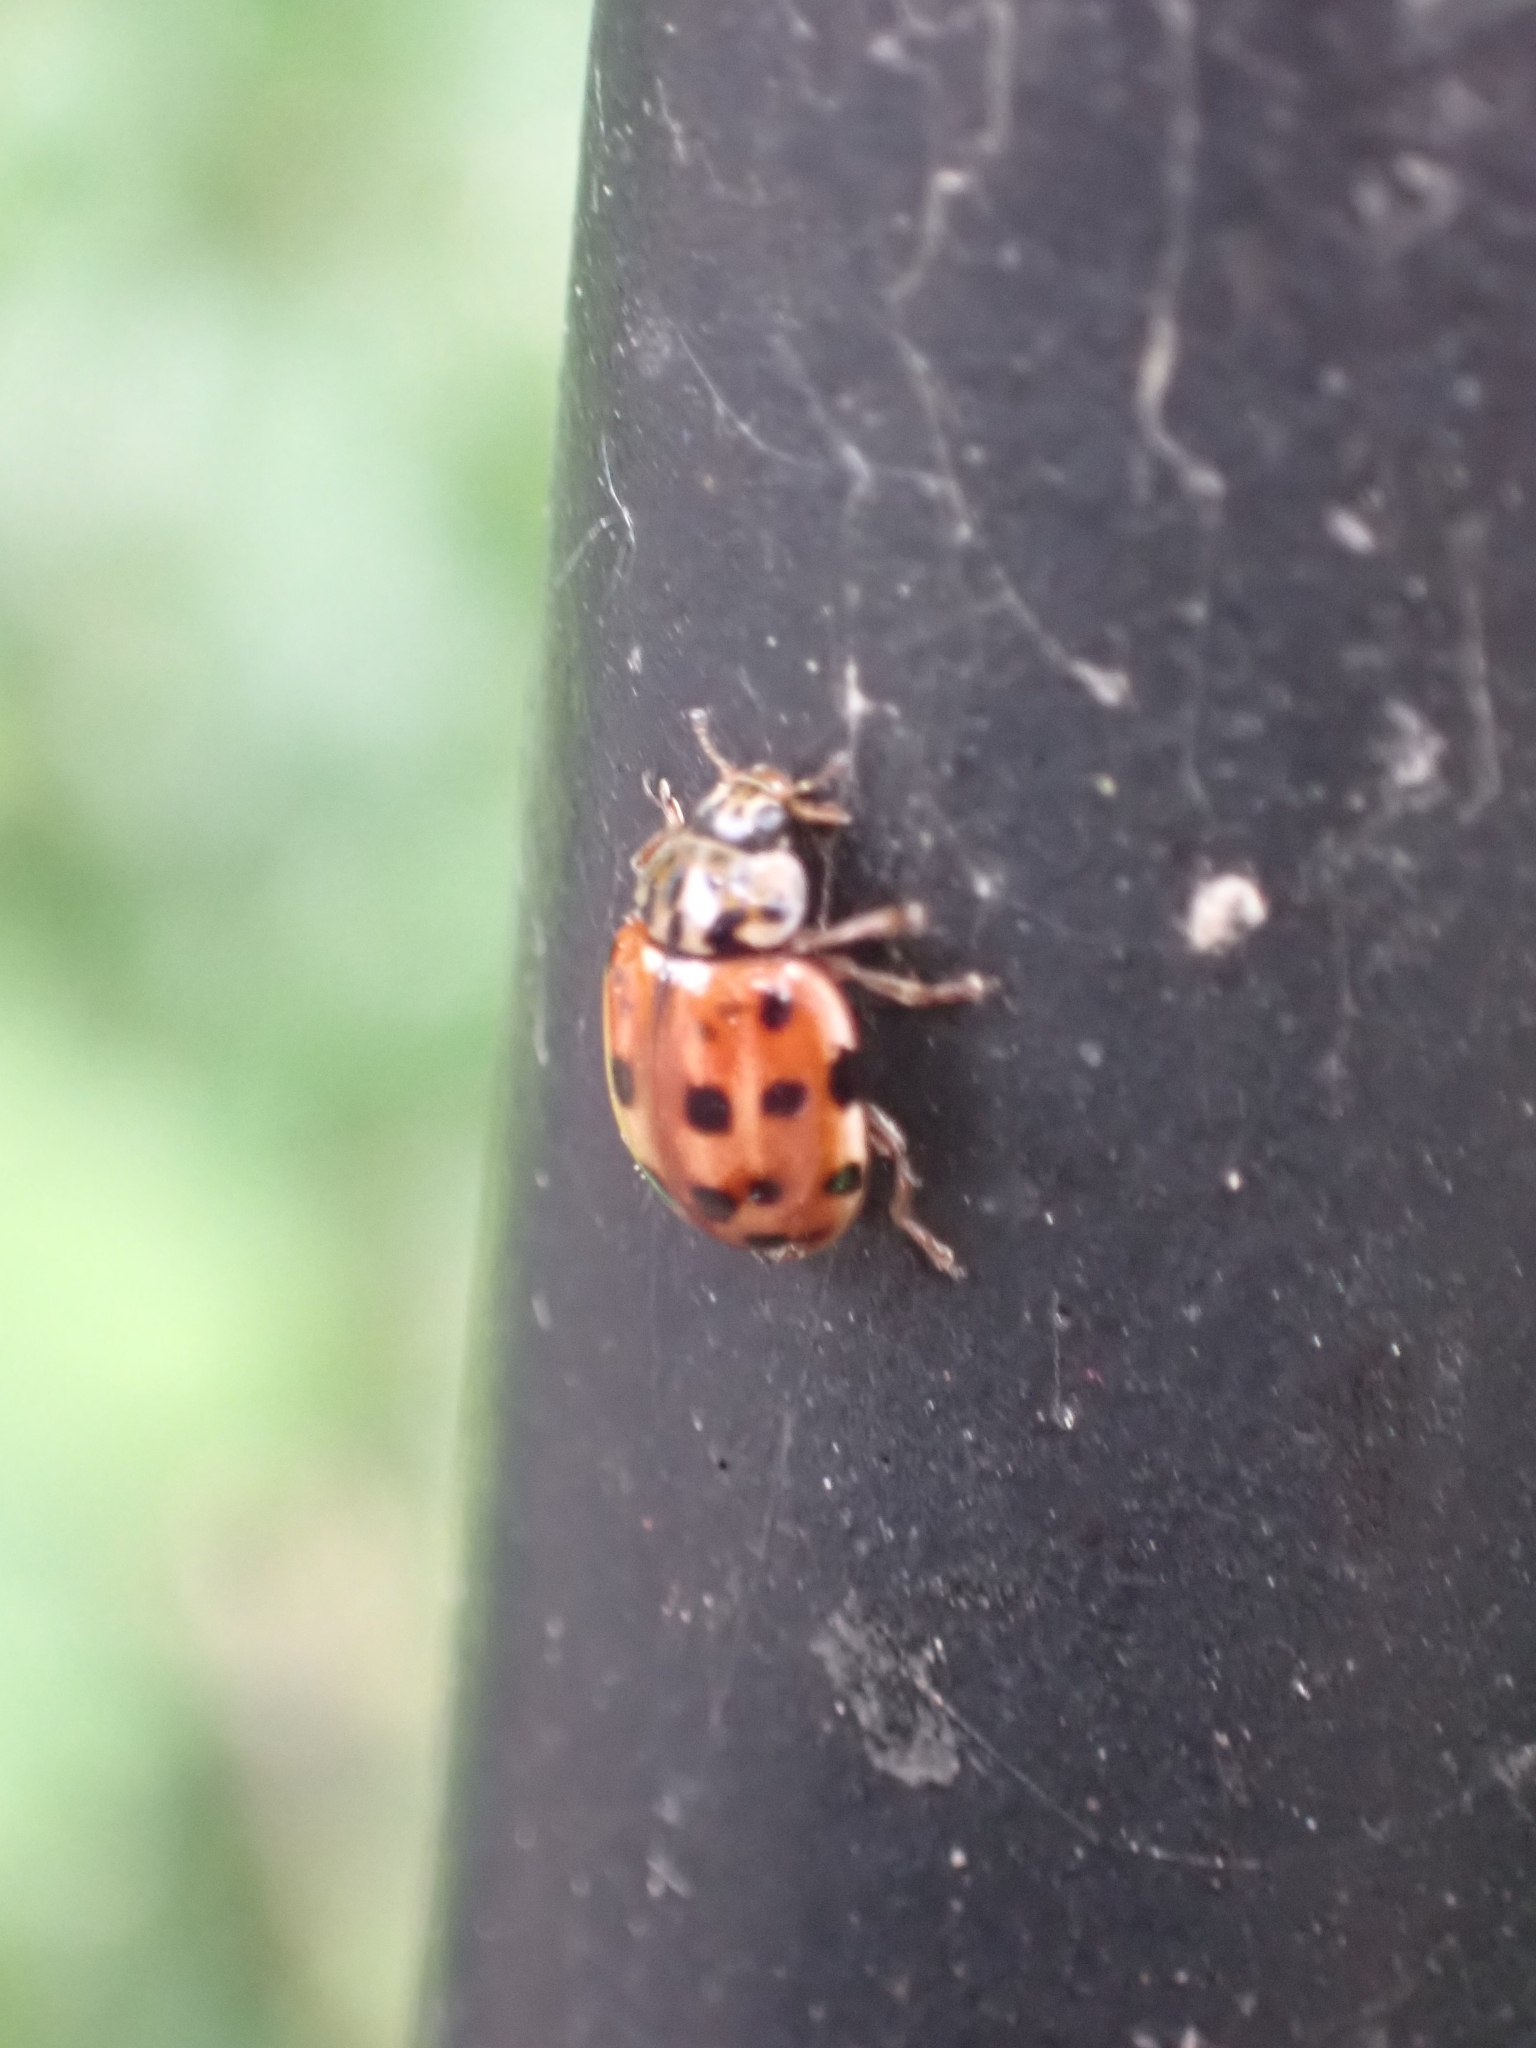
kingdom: Animalia
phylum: Arthropoda
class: Insecta
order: Coleoptera
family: Coccinellidae
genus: Harmonia
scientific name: Harmonia quadripunctata
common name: Cream-streaked ladybird
